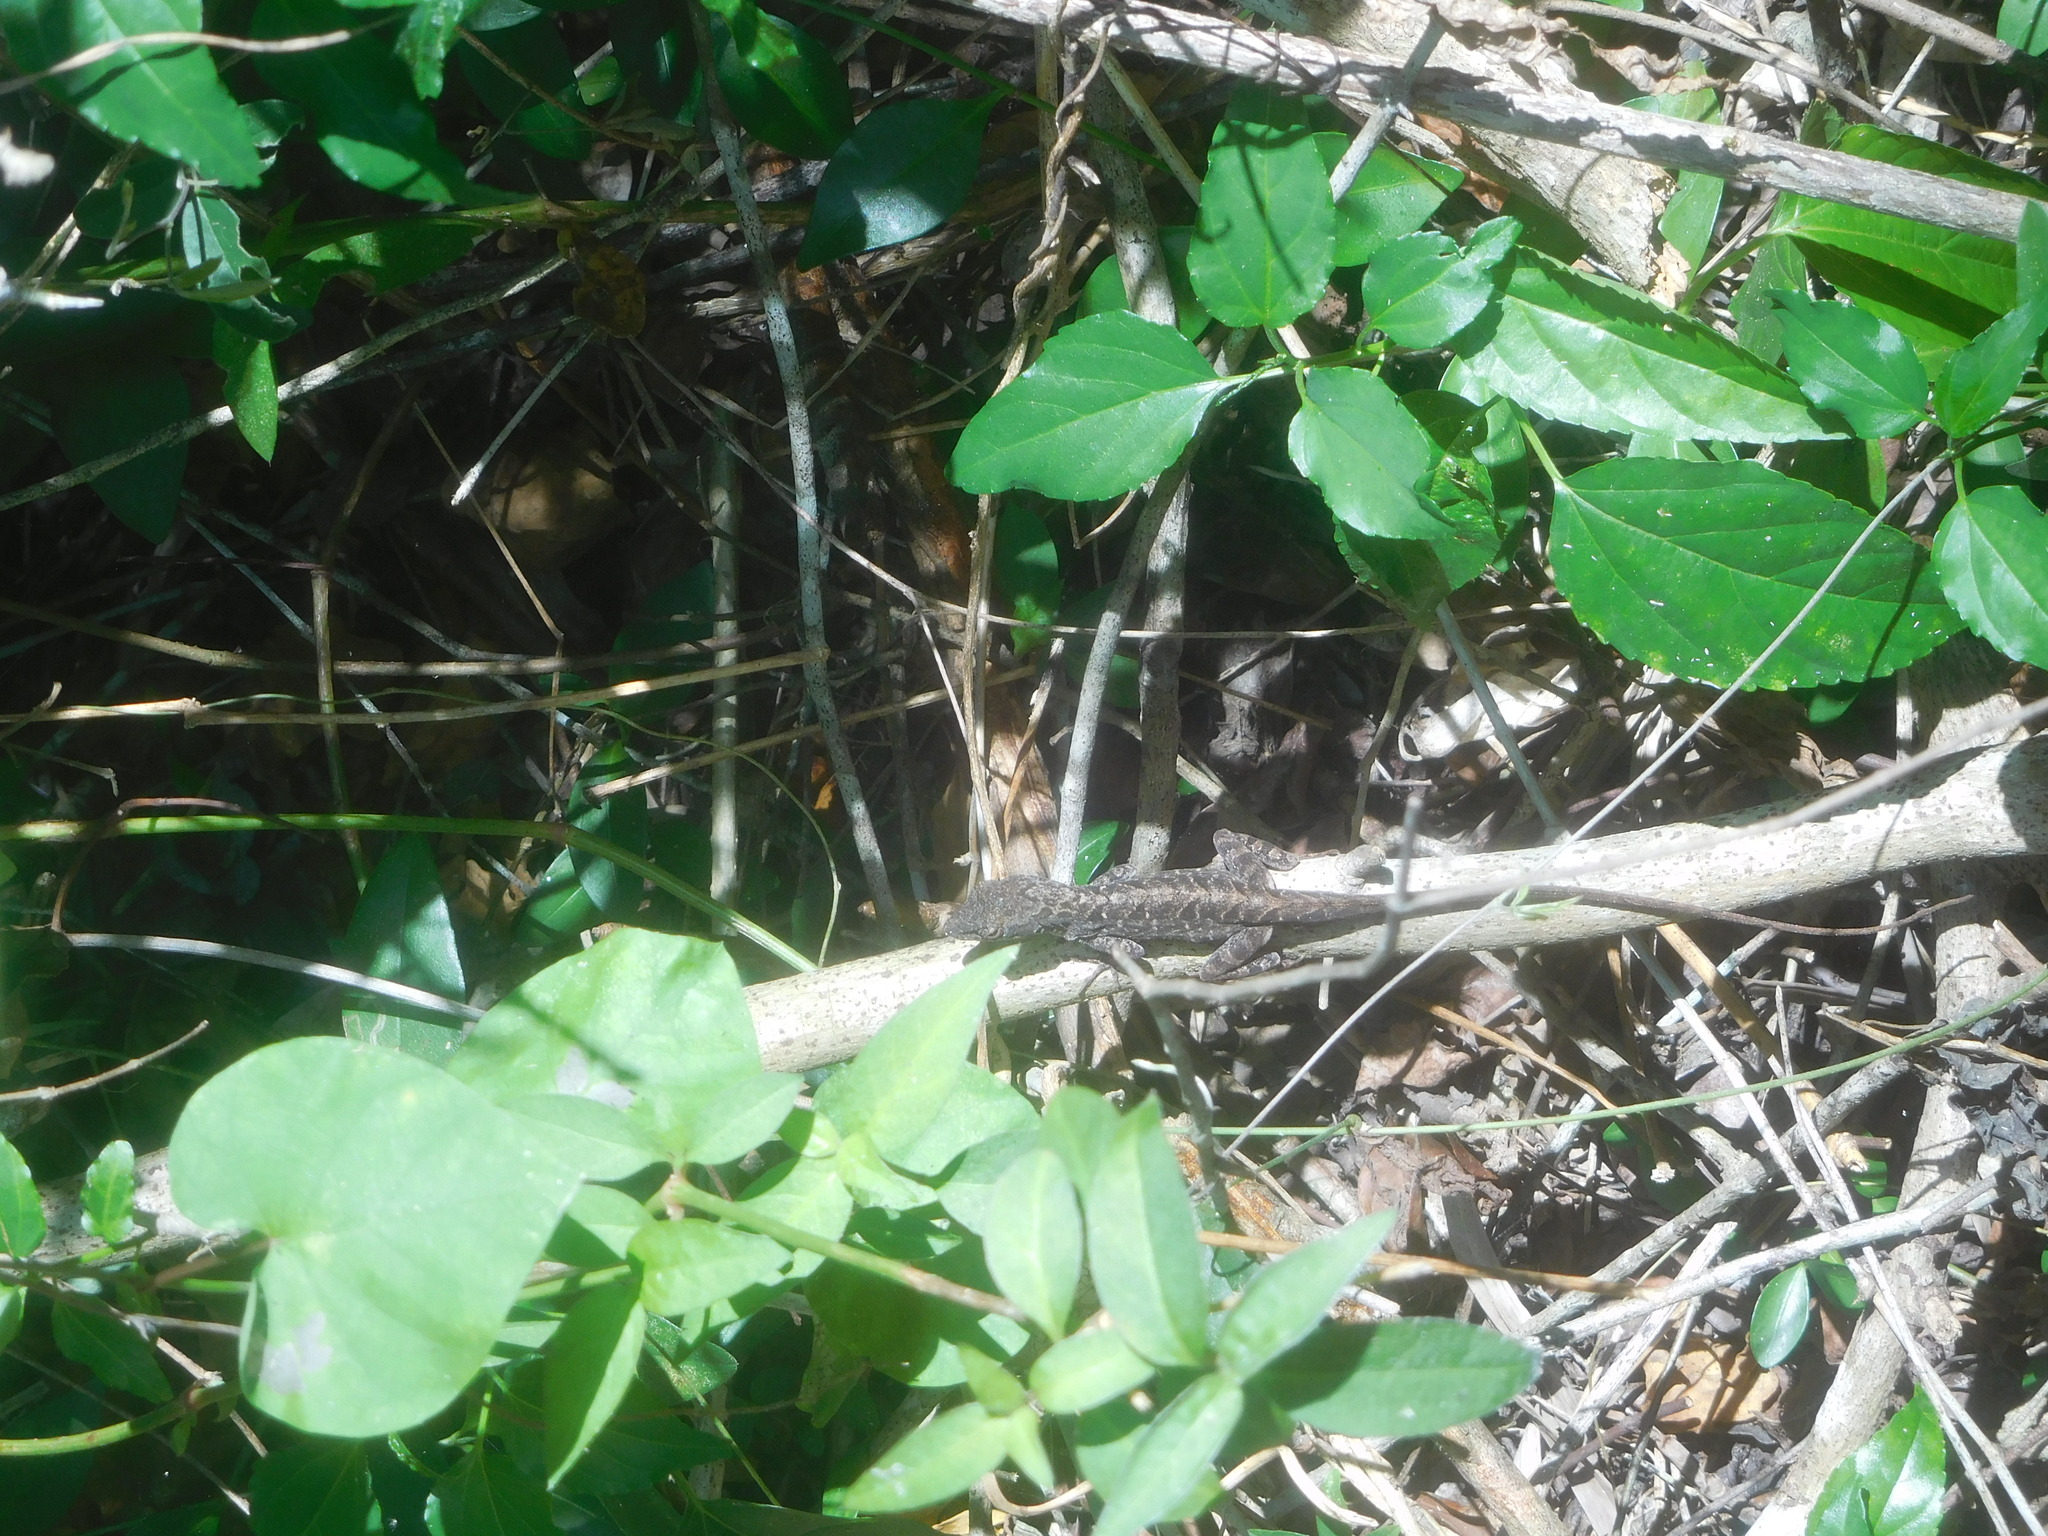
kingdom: Animalia
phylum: Chordata
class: Squamata
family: Dactyloidae
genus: Anolis
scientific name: Anolis sagrei
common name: Brown anole
